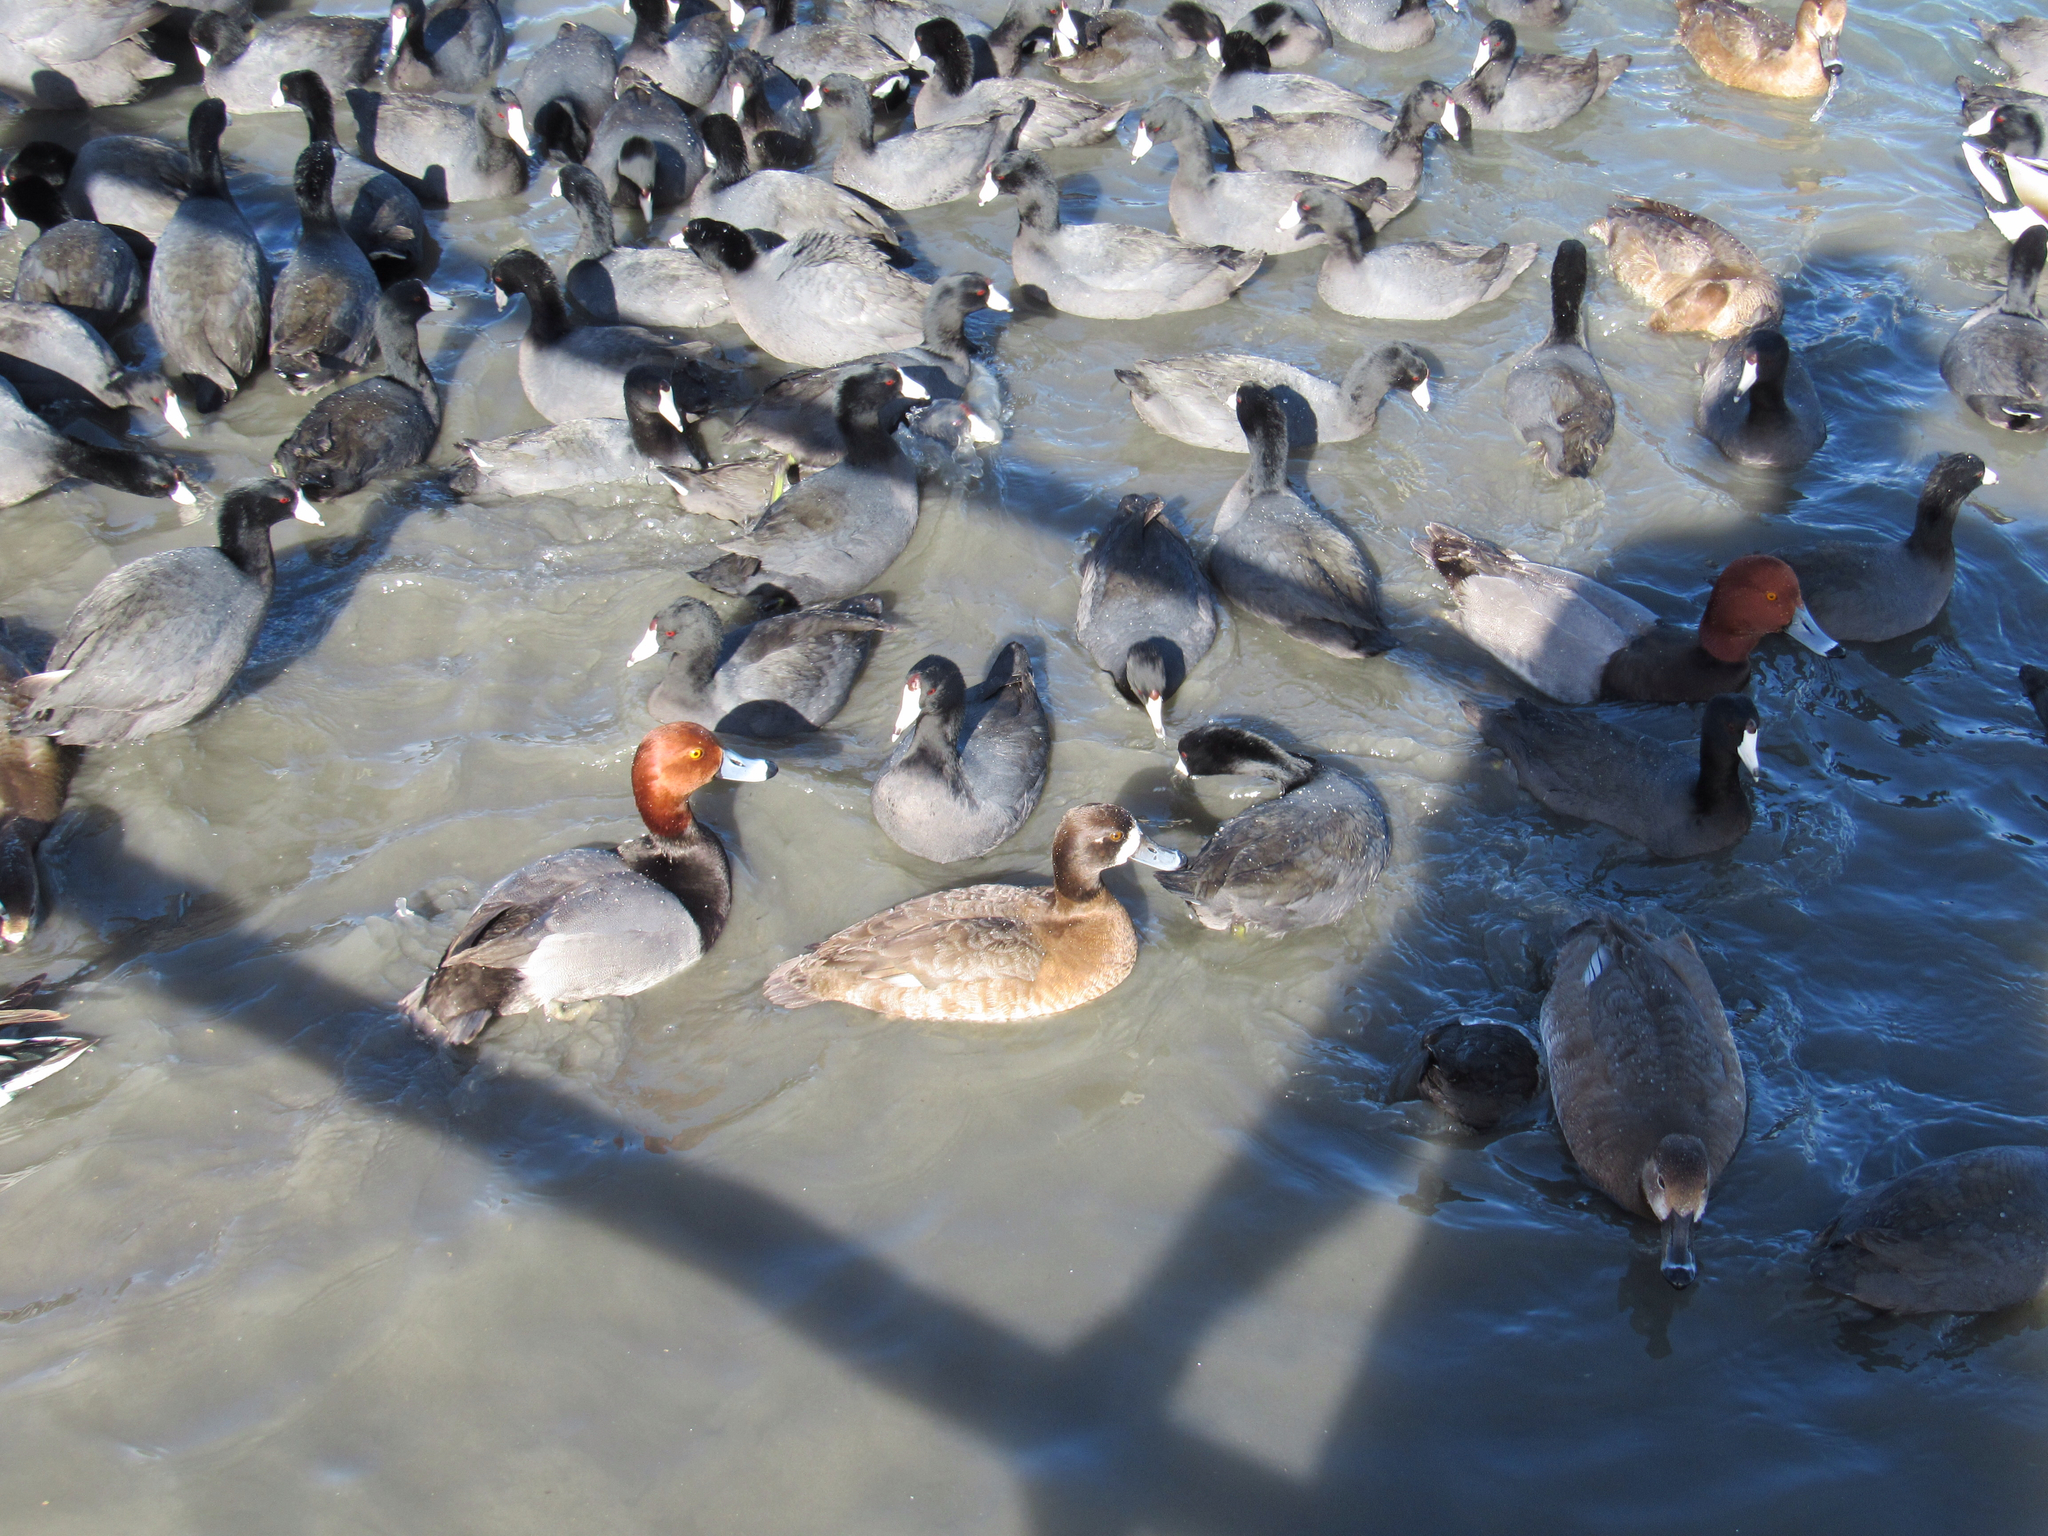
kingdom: Animalia
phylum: Chordata
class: Aves
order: Anseriformes
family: Anatidae
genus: Aythya
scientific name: Aythya americana
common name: Redhead
